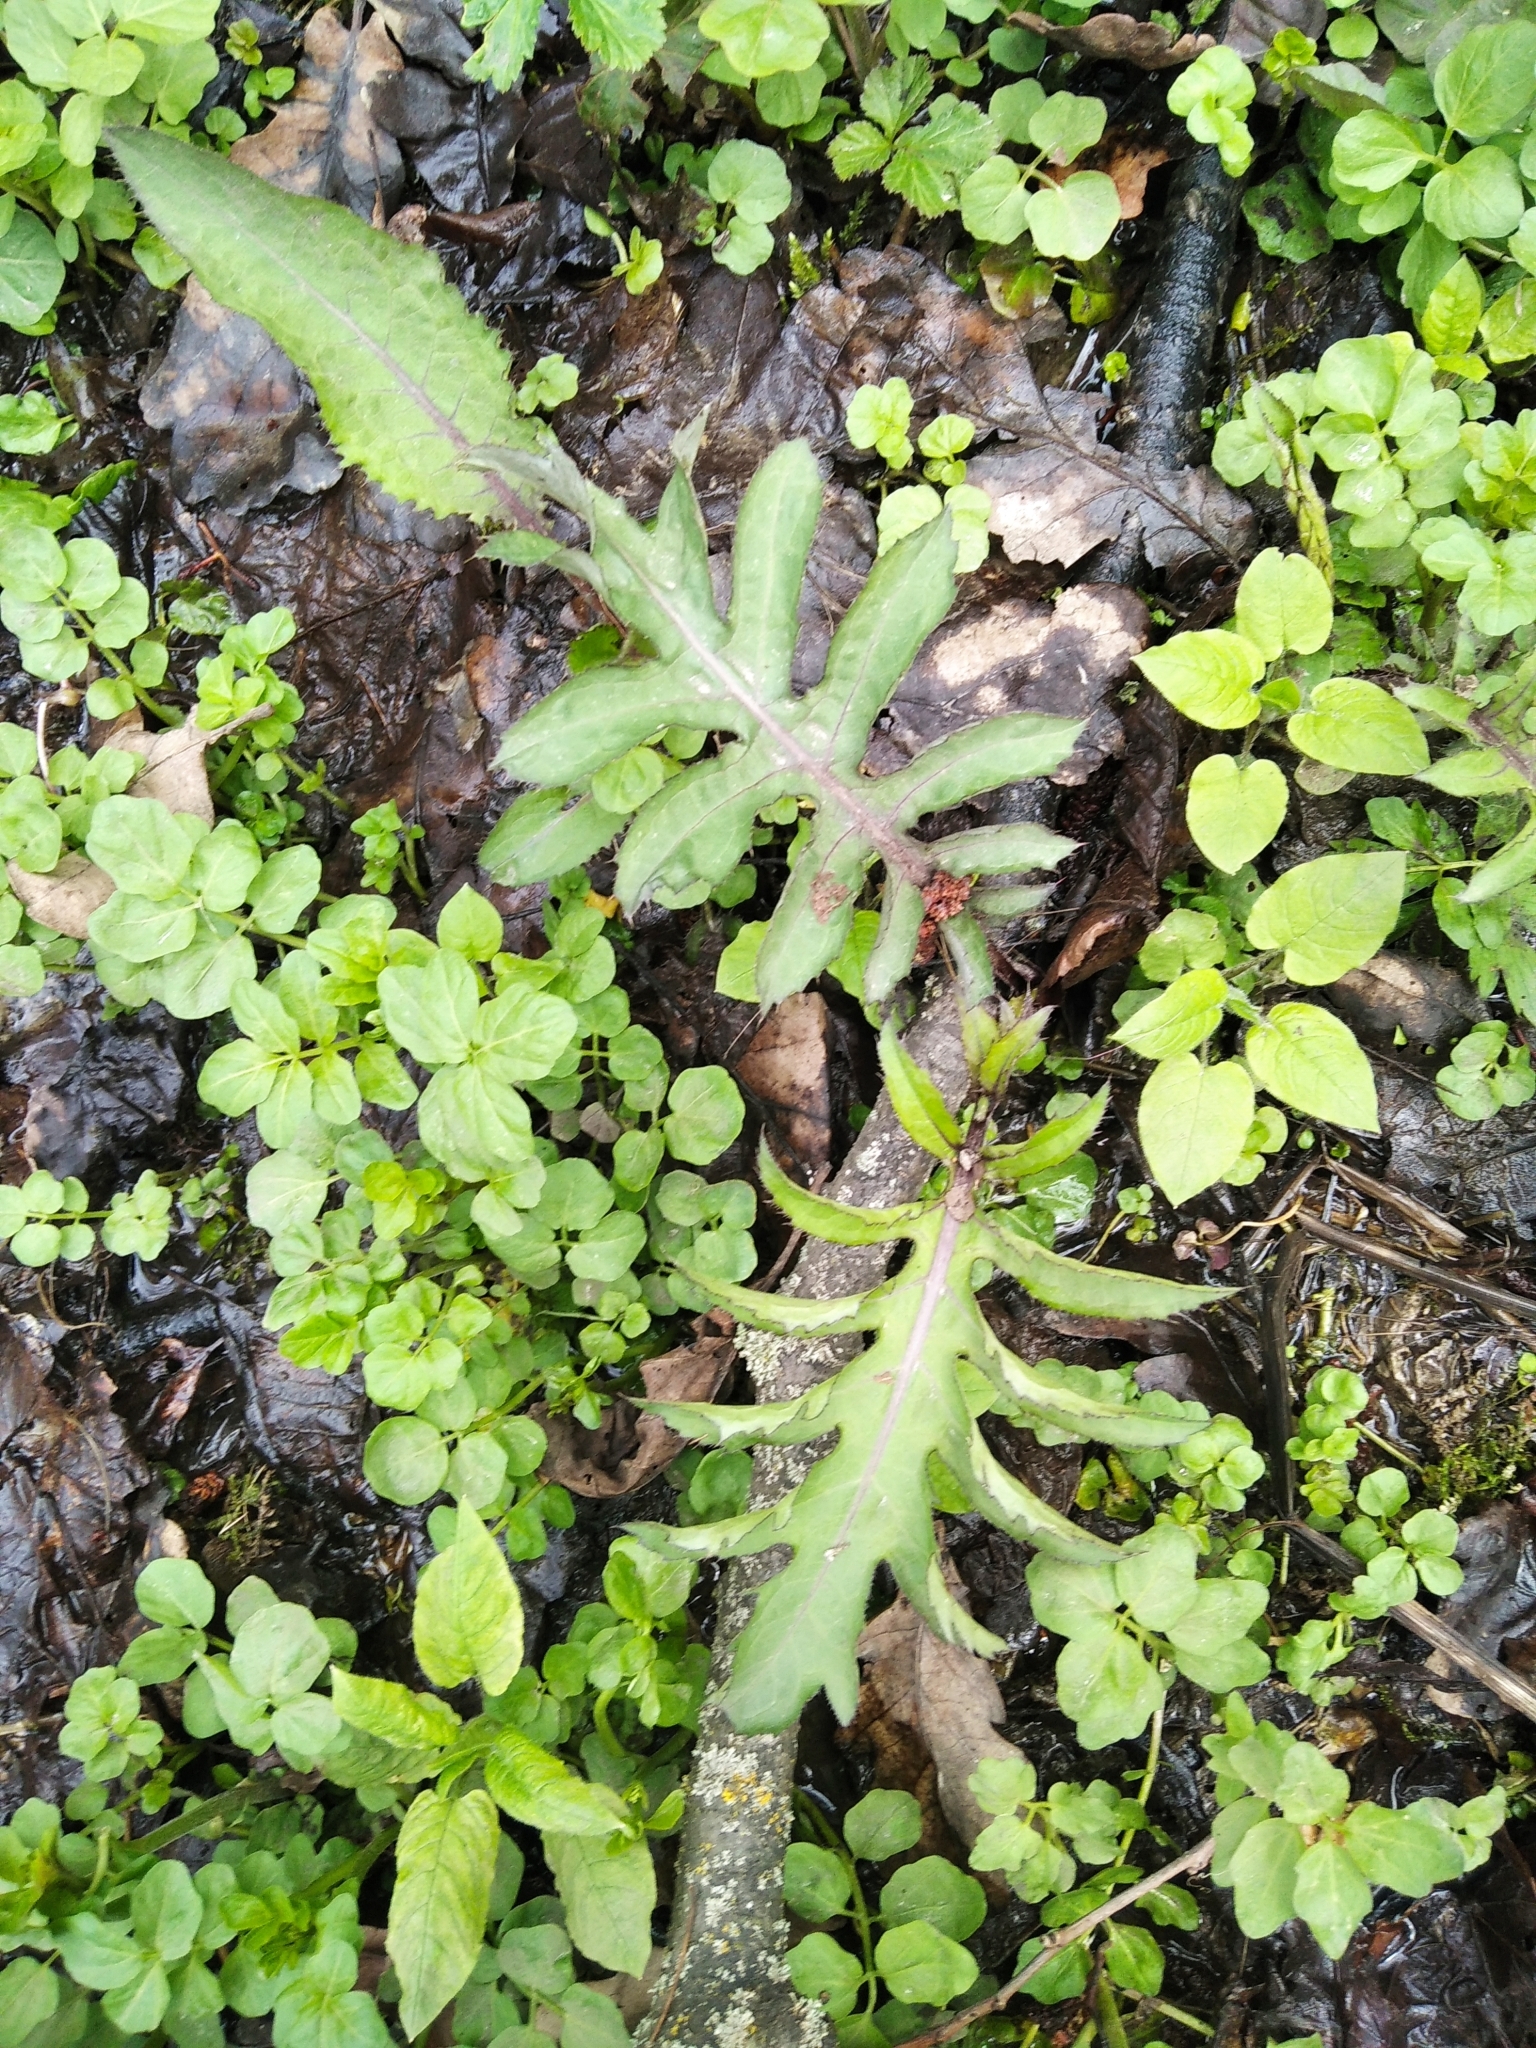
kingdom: Plantae
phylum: Tracheophyta
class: Magnoliopsida
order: Asterales
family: Asteraceae
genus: Cirsium
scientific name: Cirsium oleraceum
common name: Cabbage thistle
